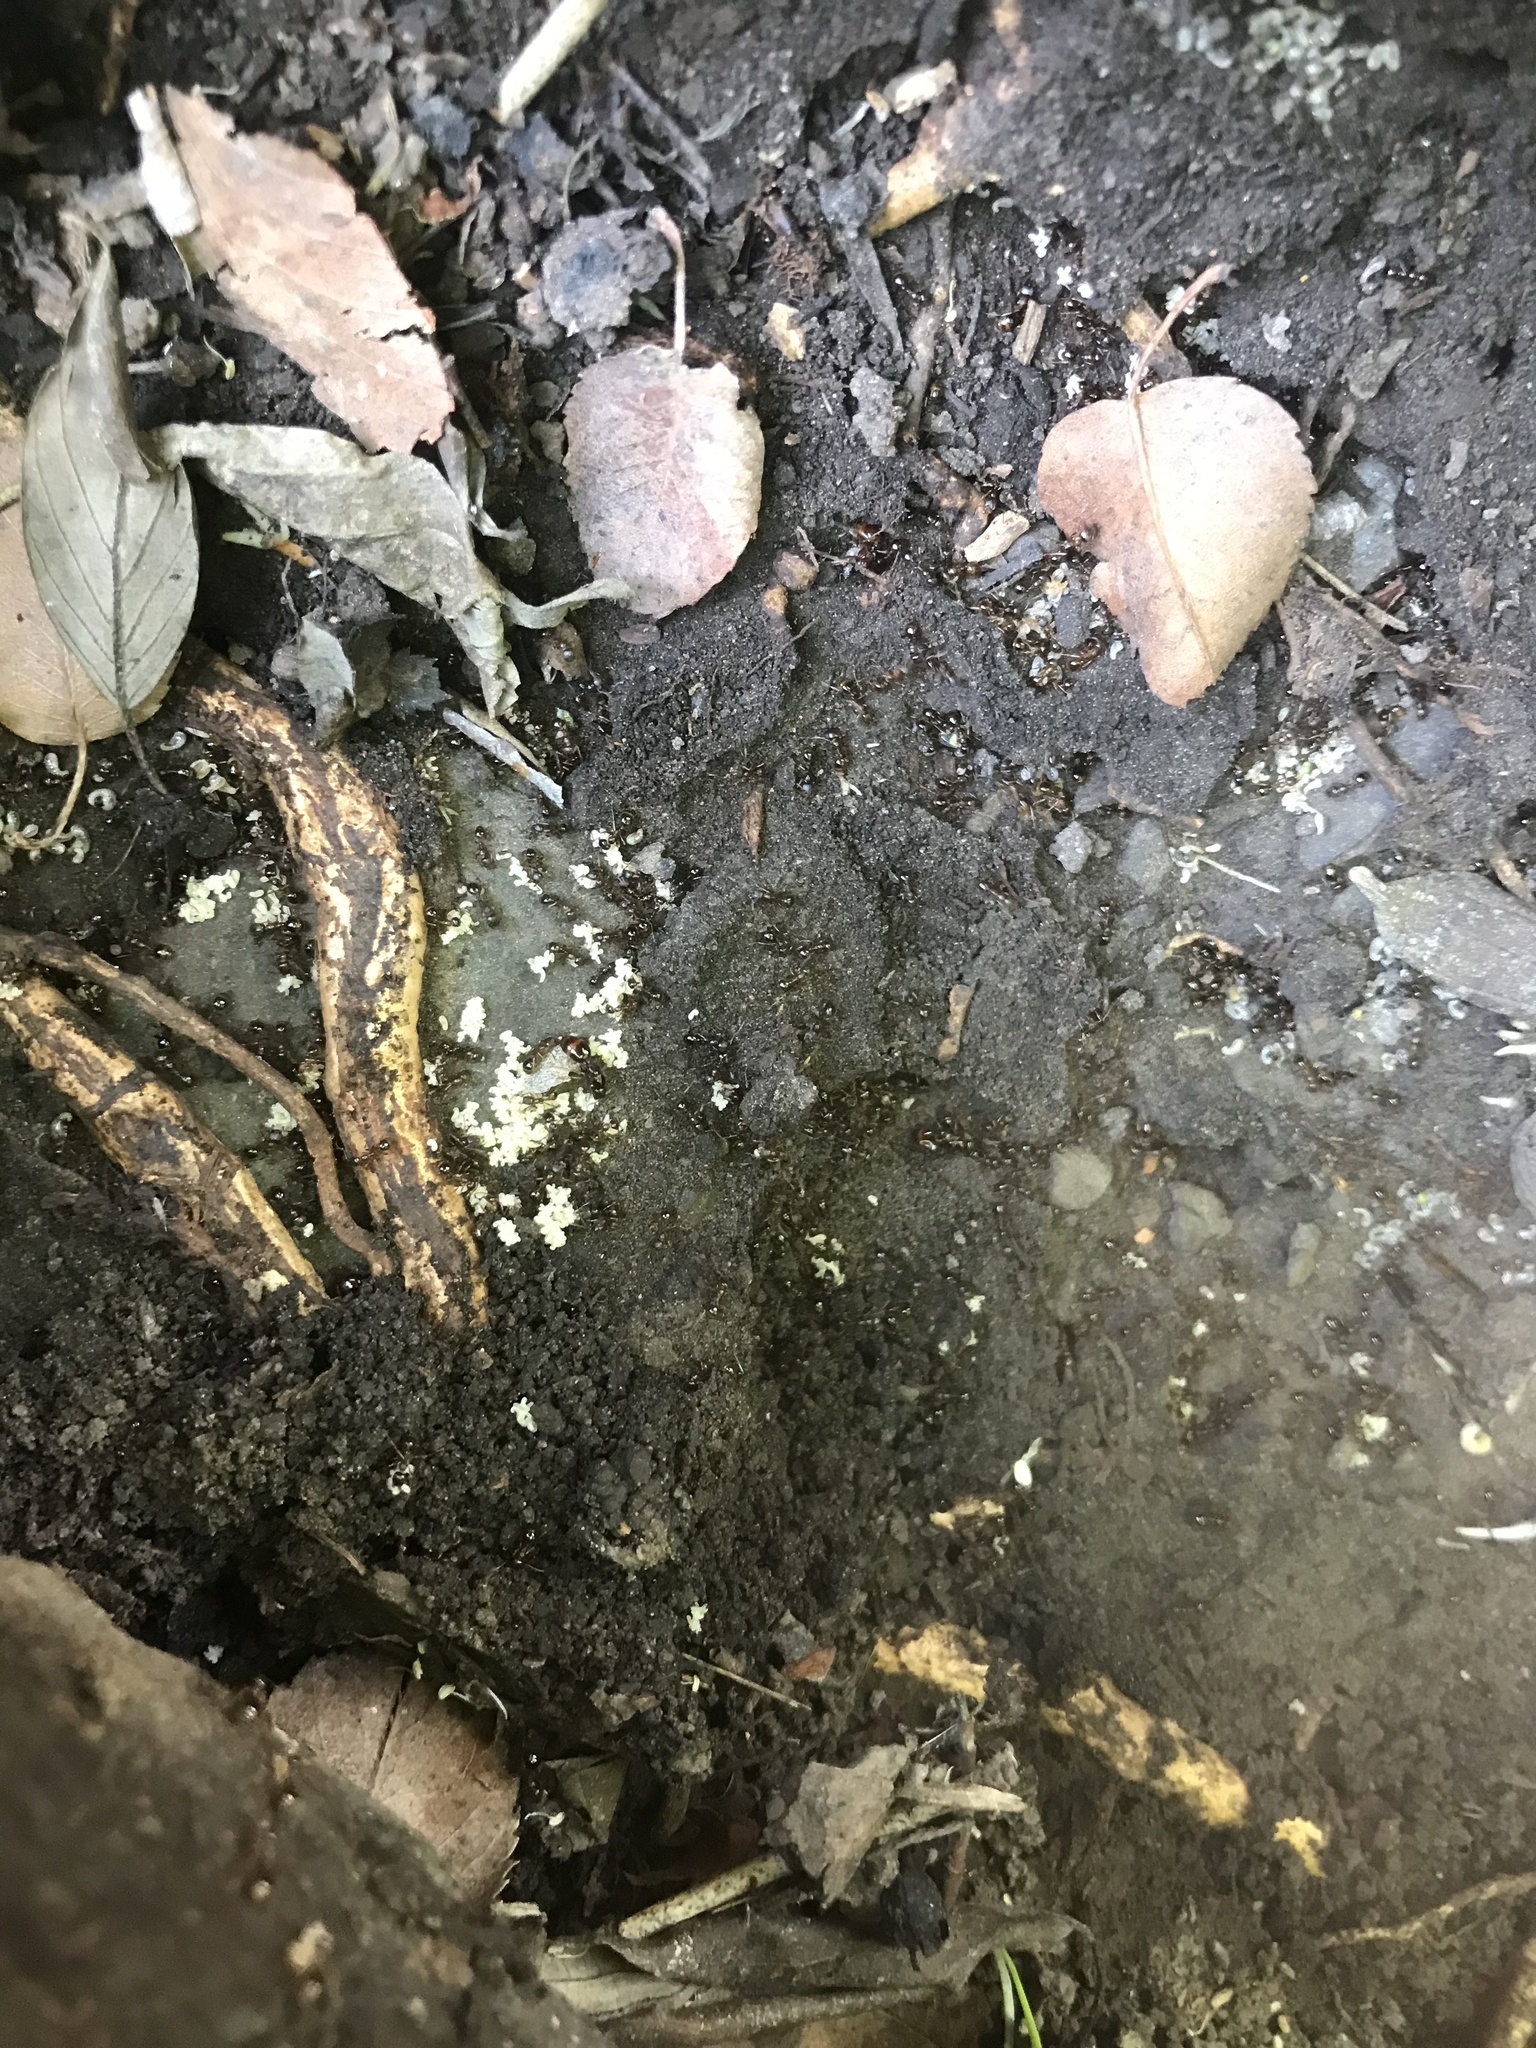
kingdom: Animalia
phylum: Arthropoda
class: Insecta
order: Hymenoptera
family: Formicidae
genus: Aphaenogaster
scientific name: Aphaenogaster occidentalis
